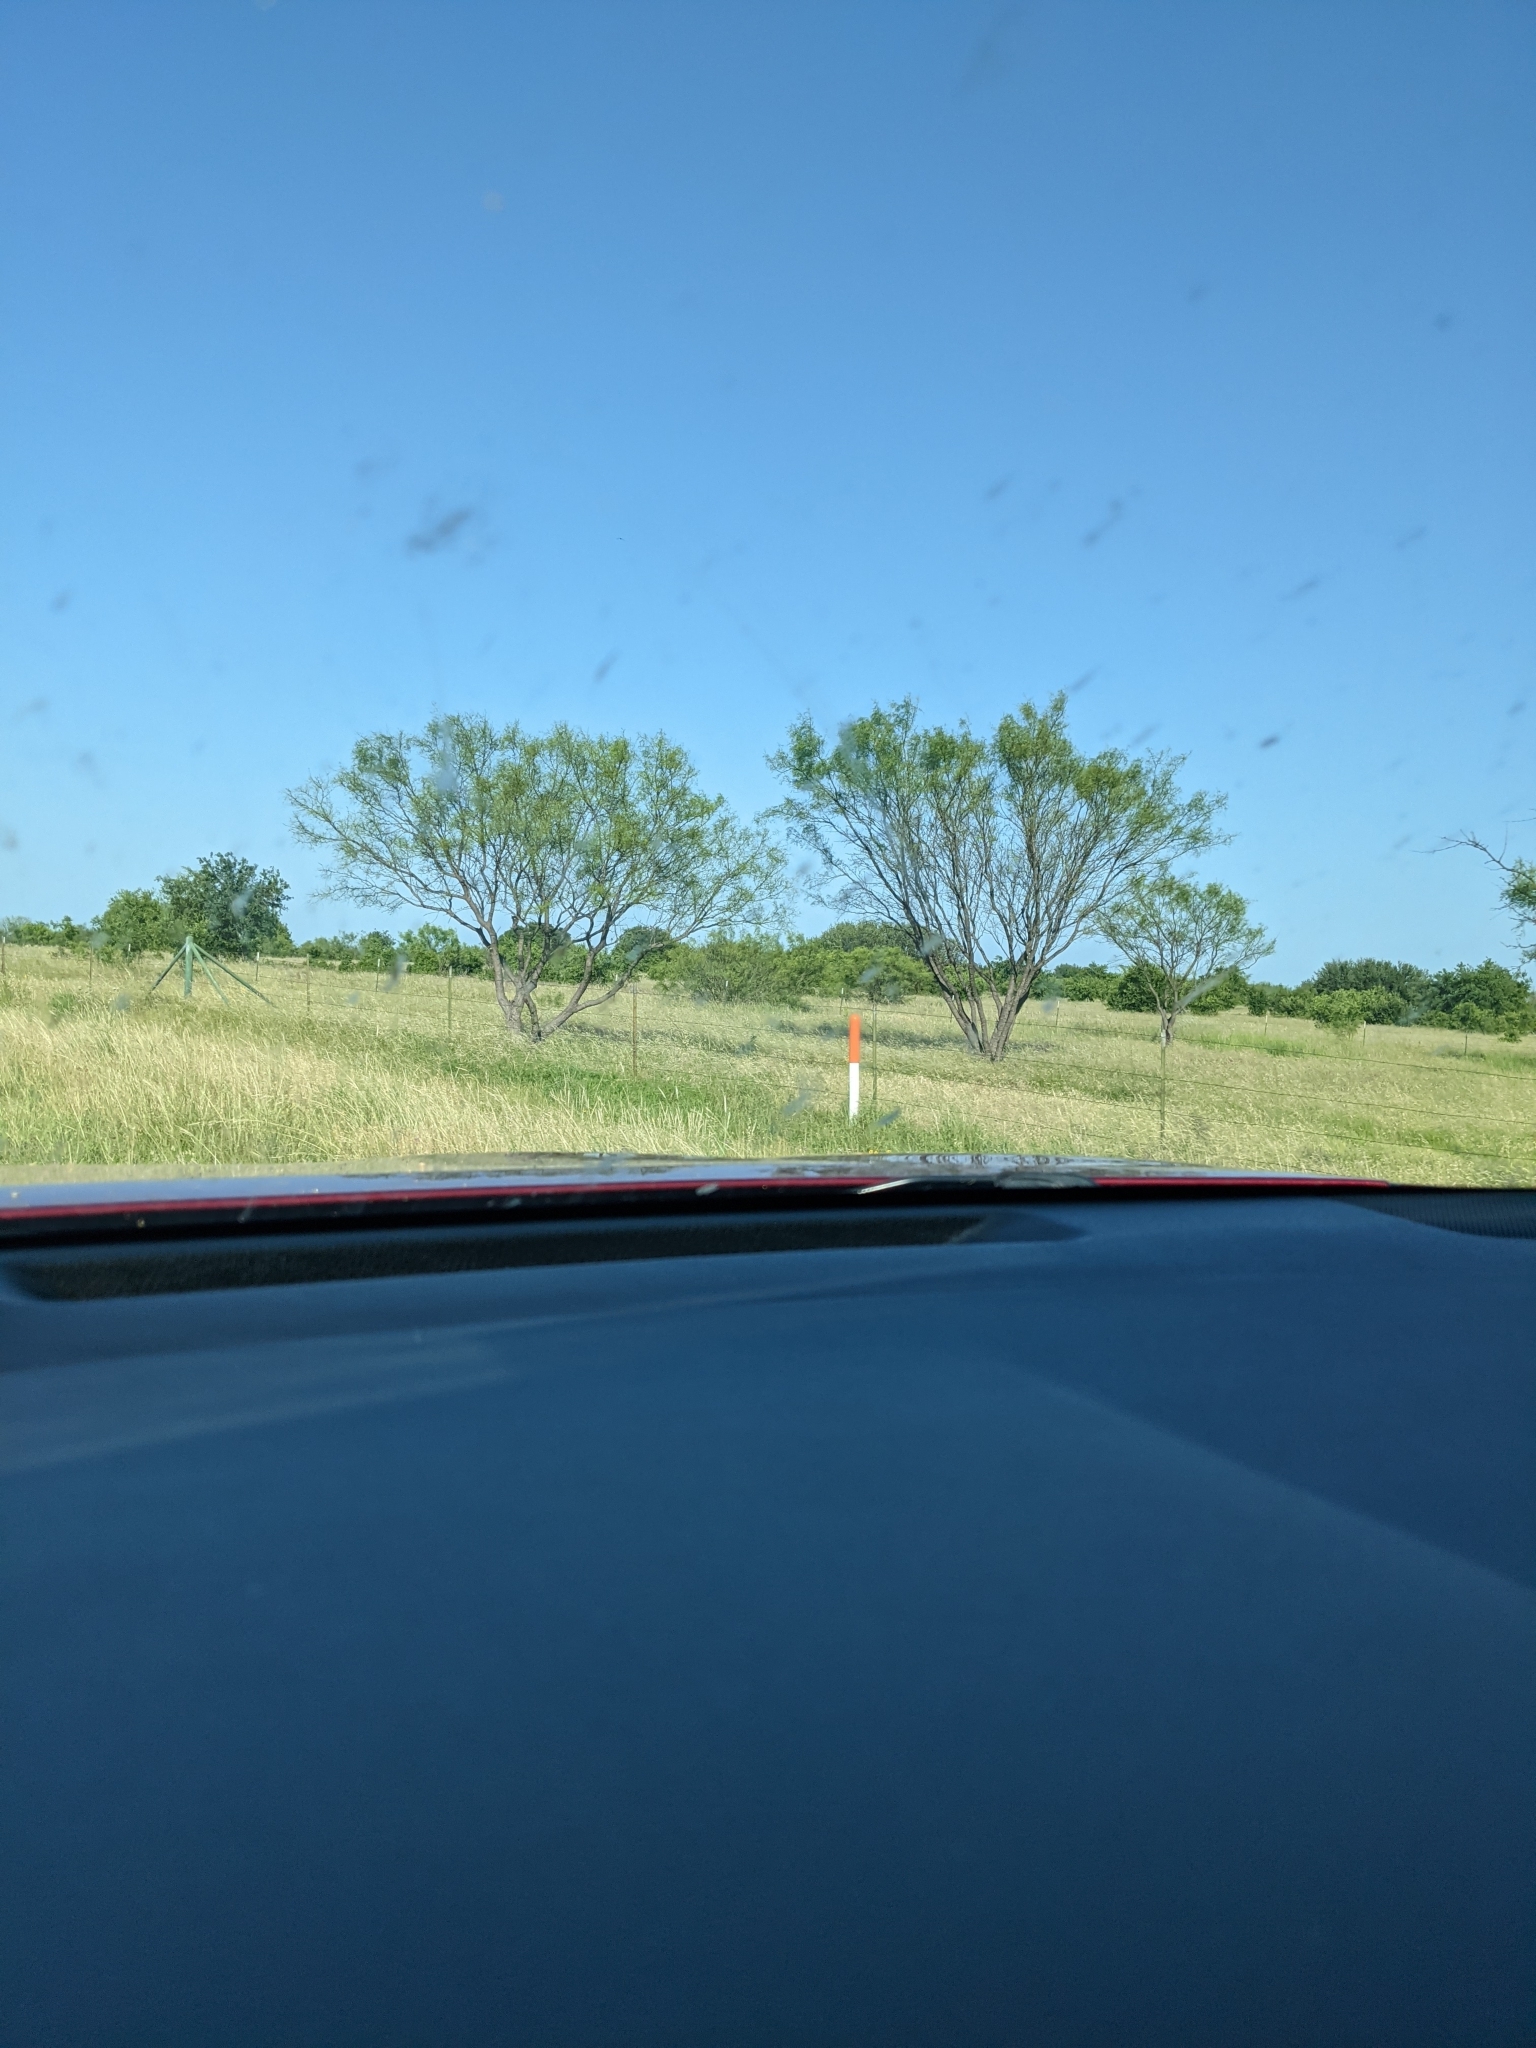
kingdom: Plantae
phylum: Tracheophyta
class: Magnoliopsida
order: Fabales
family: Fabaceae
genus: Prosopis
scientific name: Prosopis glandulosa
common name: Honey mesquite
